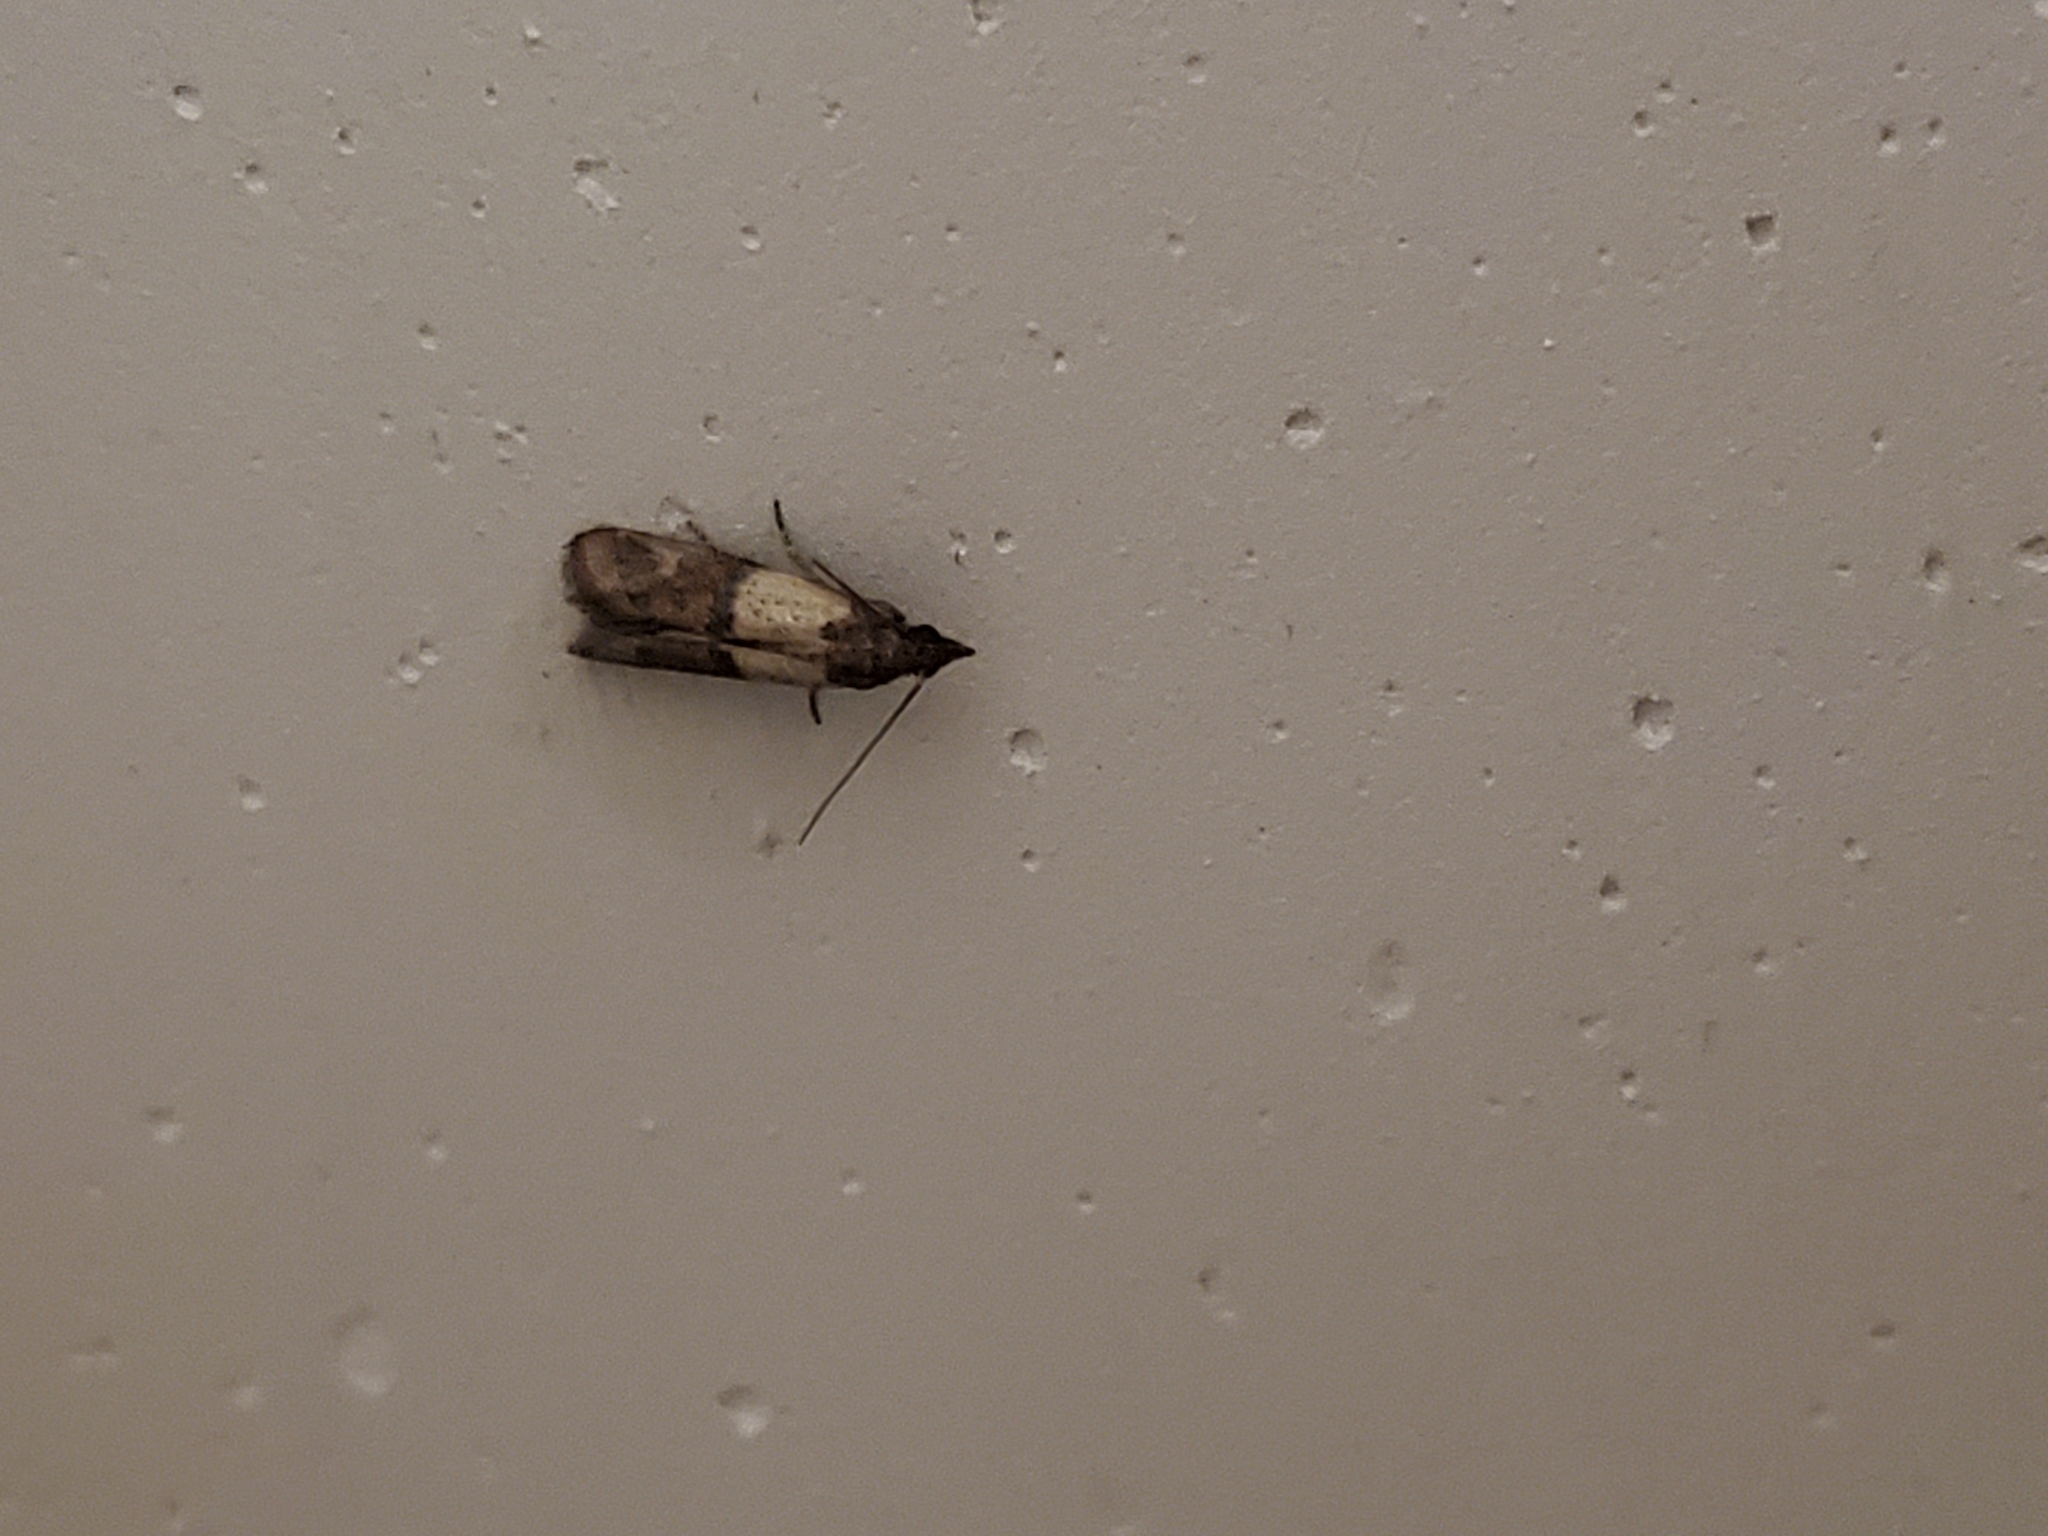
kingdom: Animalia
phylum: Arthropoda
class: Insecta
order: Lepidoptera
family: Pyralidae
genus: Plodia
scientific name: Plodia interpunctella
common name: Indian meal moth
